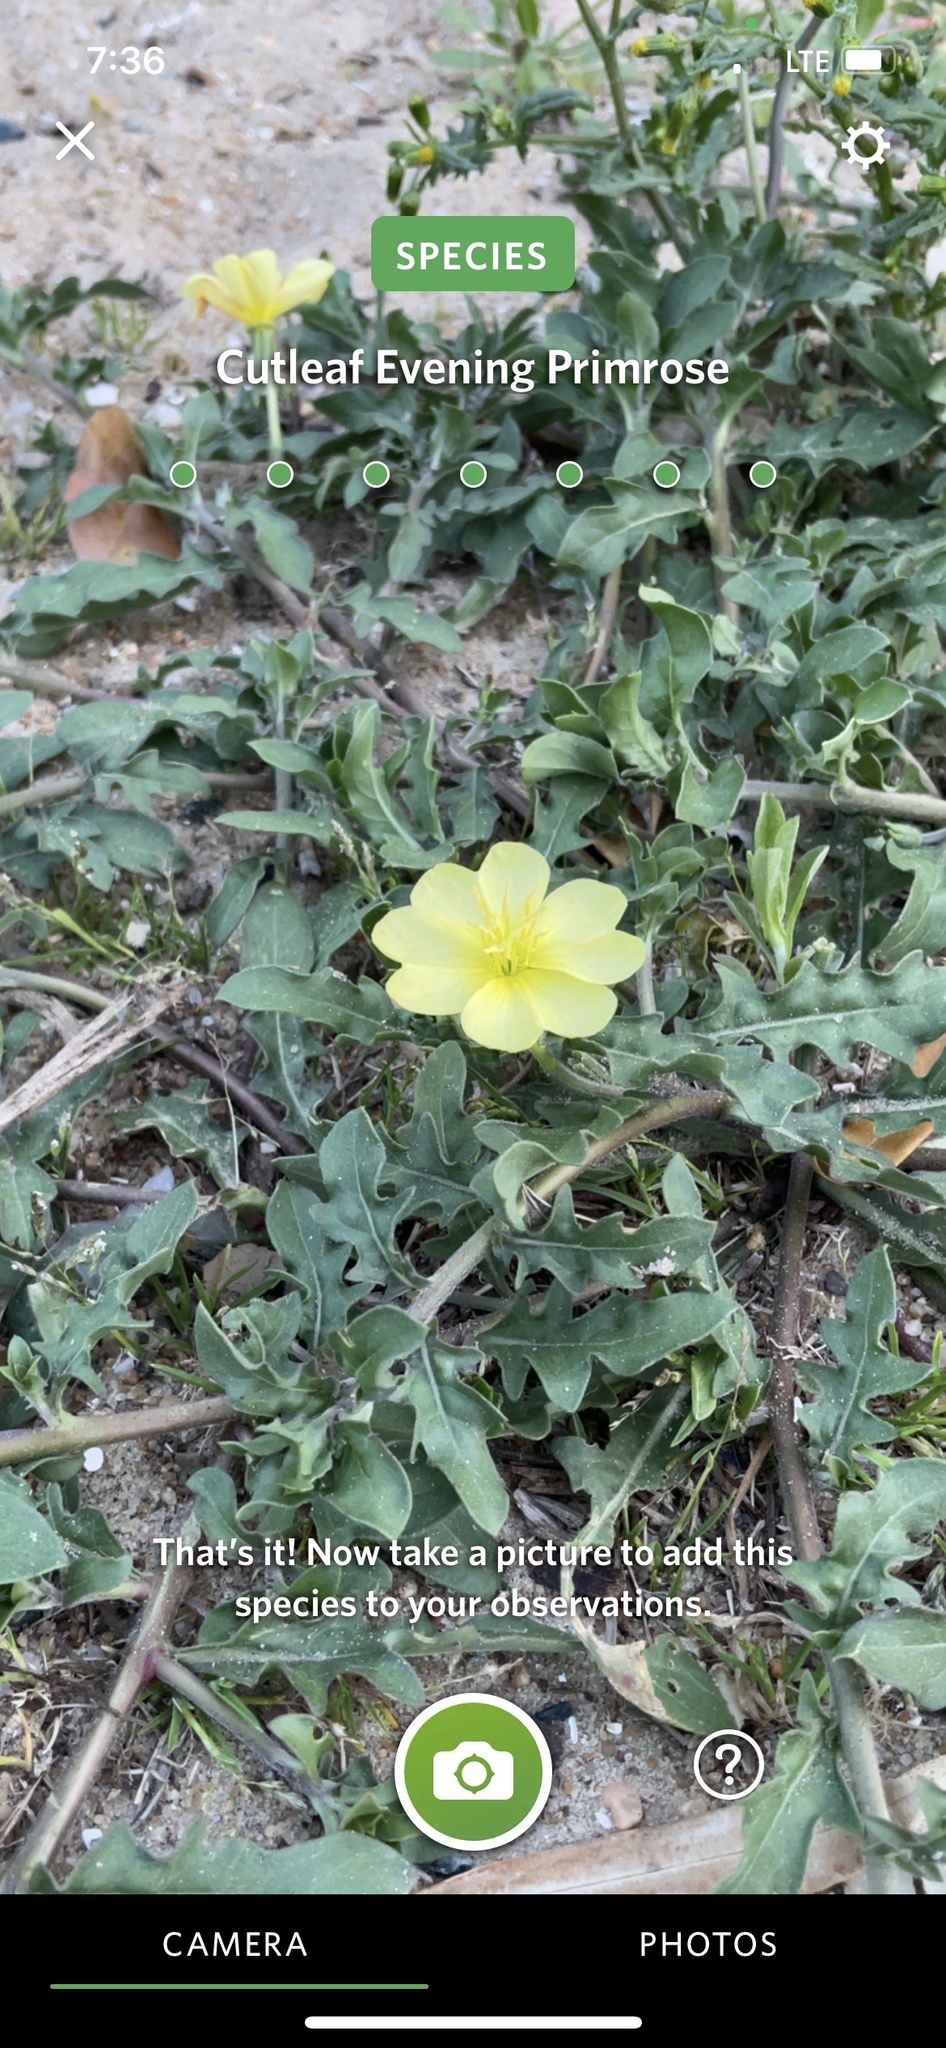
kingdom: Plantae
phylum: Tracheophyta
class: Magnoliopsida
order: Myrtales
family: Onagraceae
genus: Oenothera
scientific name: Oenothera laciniata
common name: Cut-leaved evening-primrose
